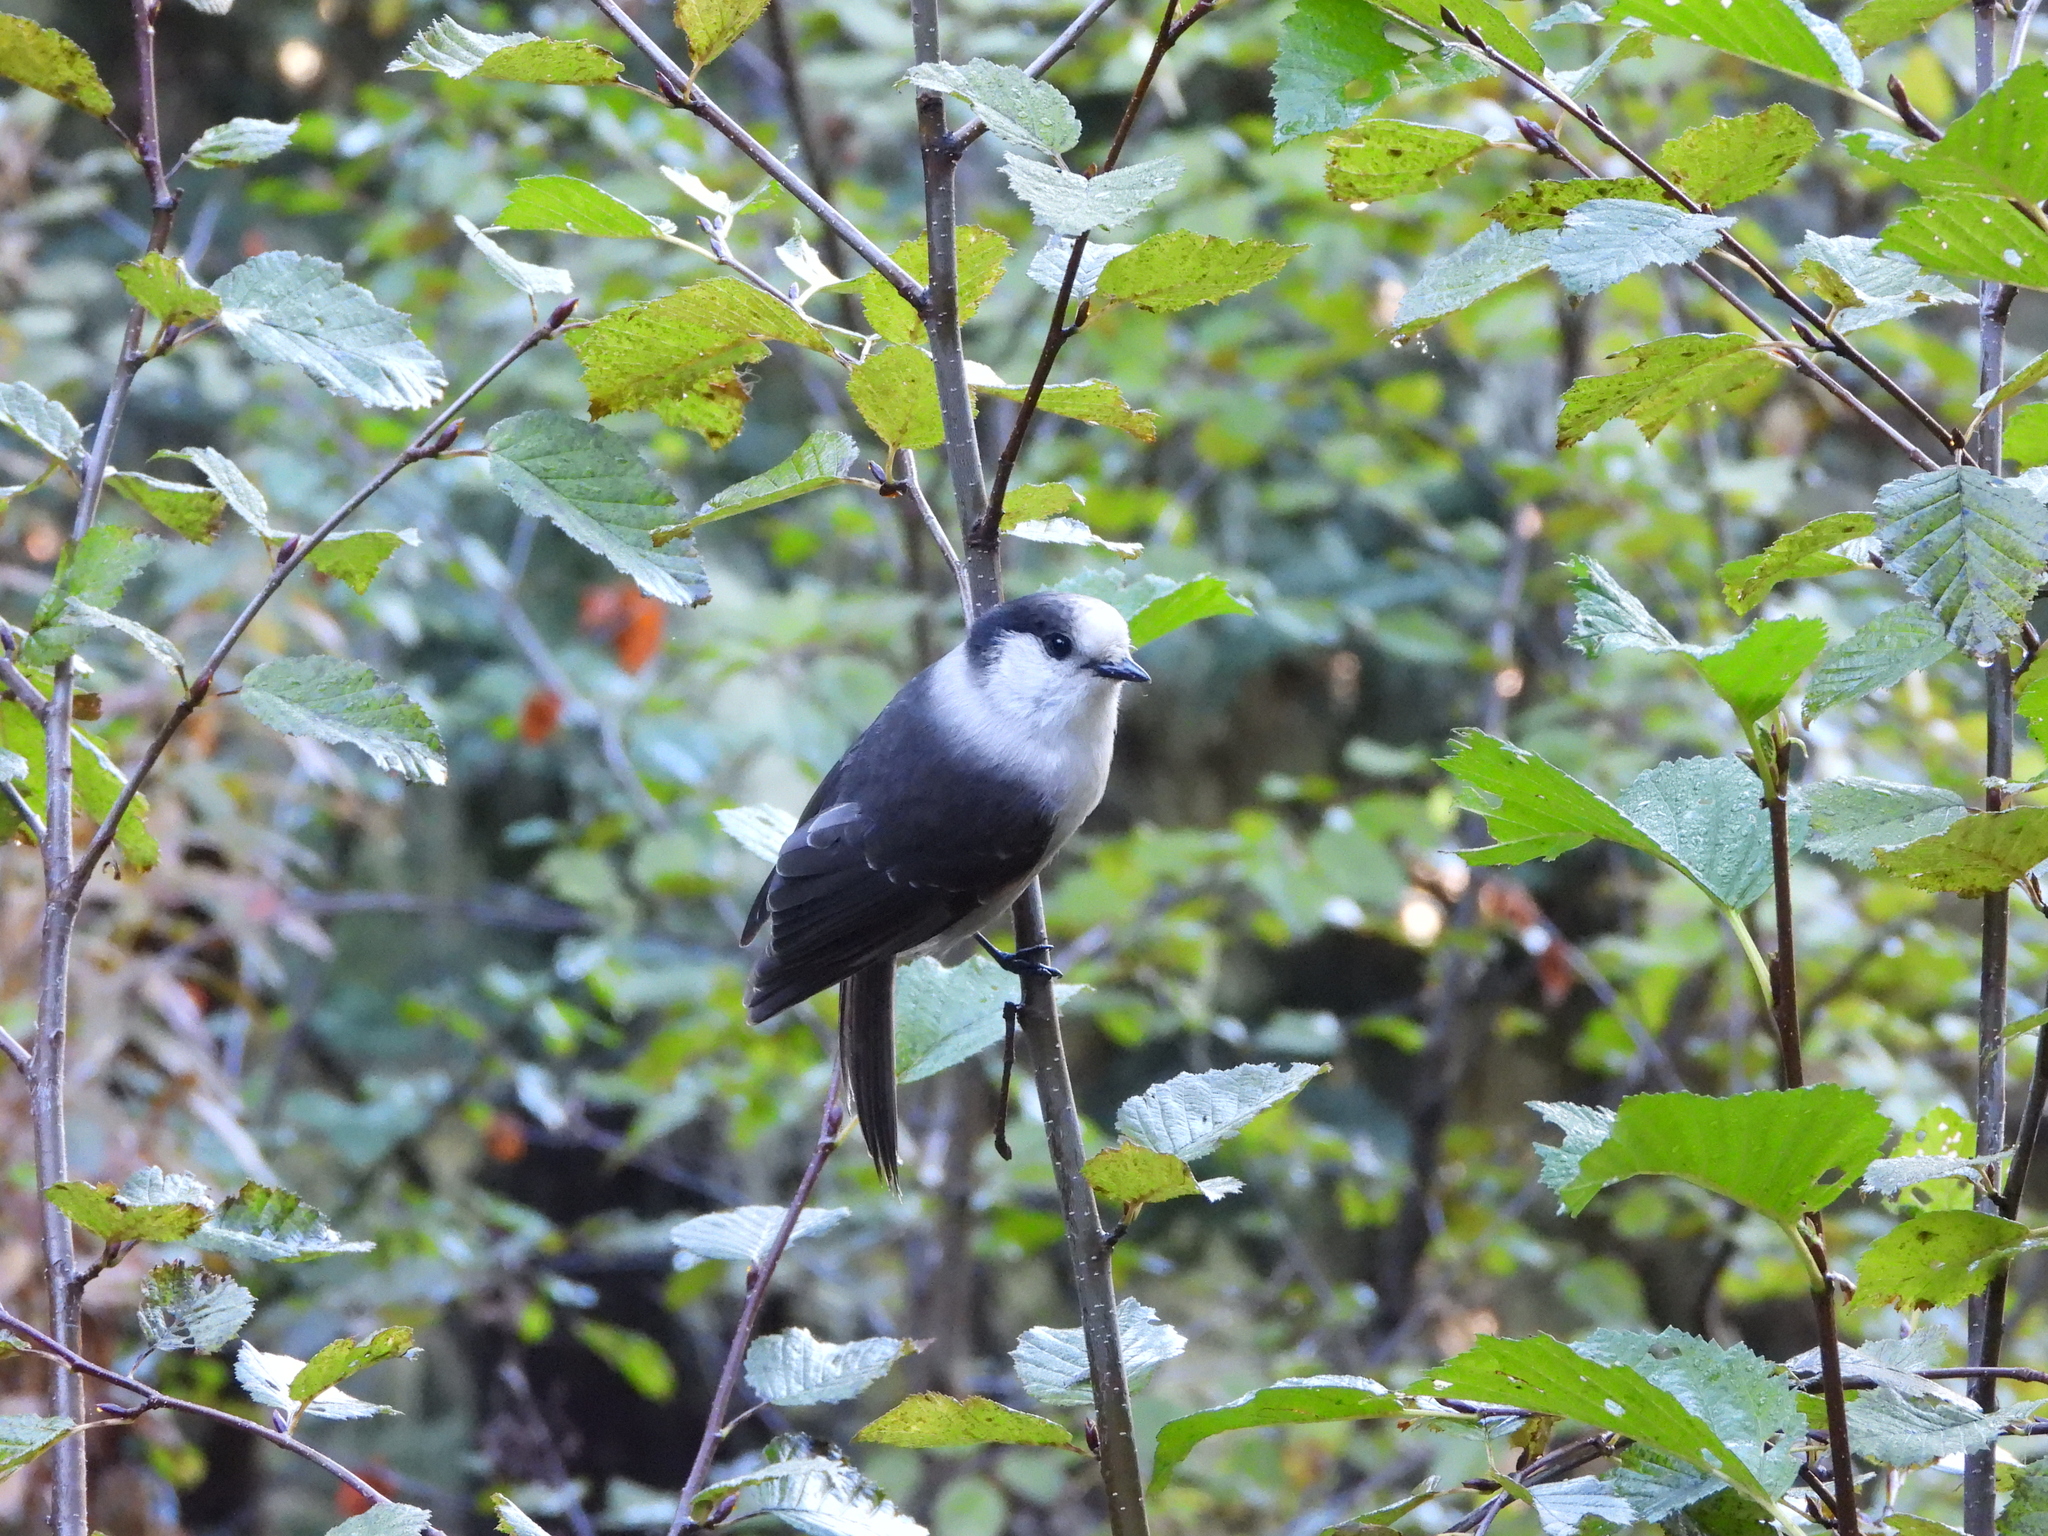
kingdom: Animalia
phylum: Chordata
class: Aves
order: Passeriformes
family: Corvidae
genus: Perisoreus
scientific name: Perisoreus canadensis
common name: Gray jay
